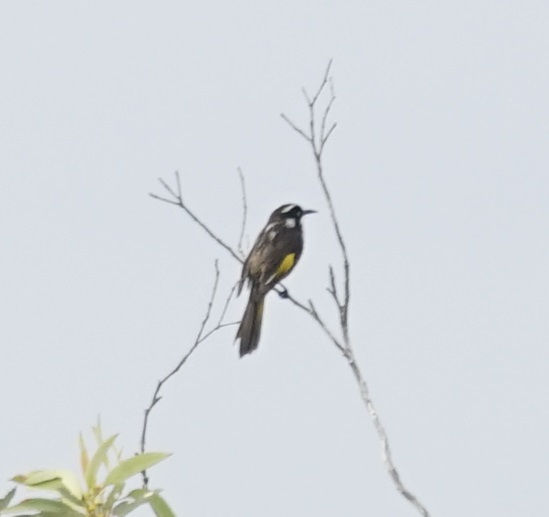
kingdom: Animalia
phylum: Chordata
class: Aves
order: Passeriformes
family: Meliphagidae
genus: Phylidonyris
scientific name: Phylidonyris novaehollandiae
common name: New holland honeyeater
